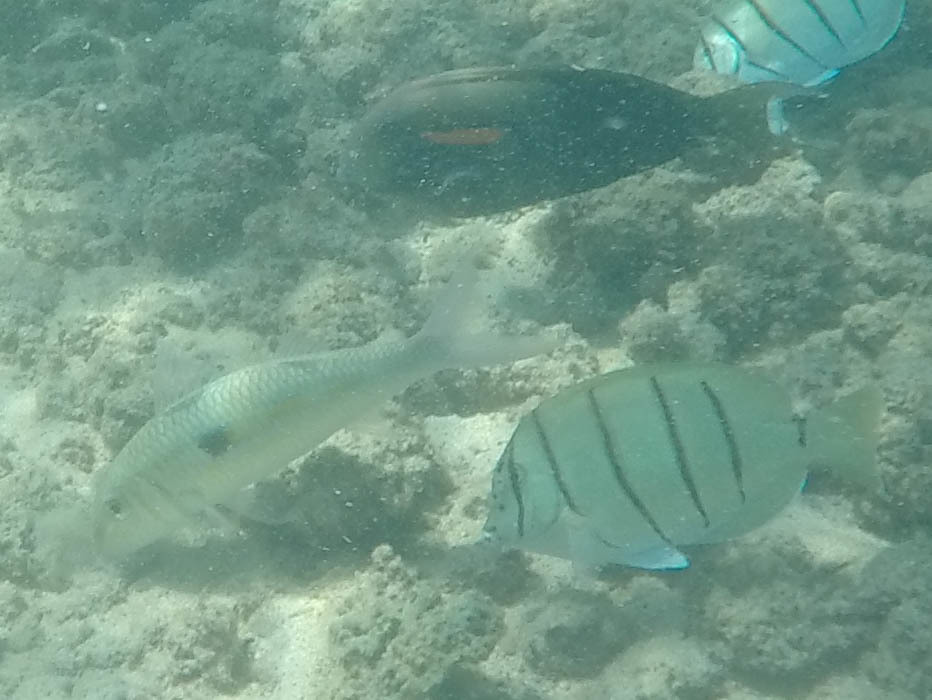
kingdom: Animalia
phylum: Chordata
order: Perciformes
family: Acanthuridae
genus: Acanthurus
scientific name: Acanthurus triostegus
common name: Convict surgeonfish
